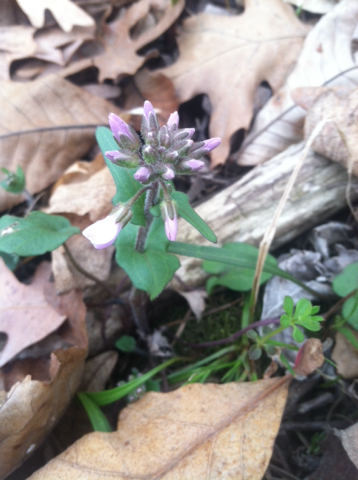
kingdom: Plantae
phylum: Tracheophyta
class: Magnoliopsida
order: Brassicales
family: Brassicaceae
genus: Cardamine
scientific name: Cardamine douglassii
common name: Purple cress
